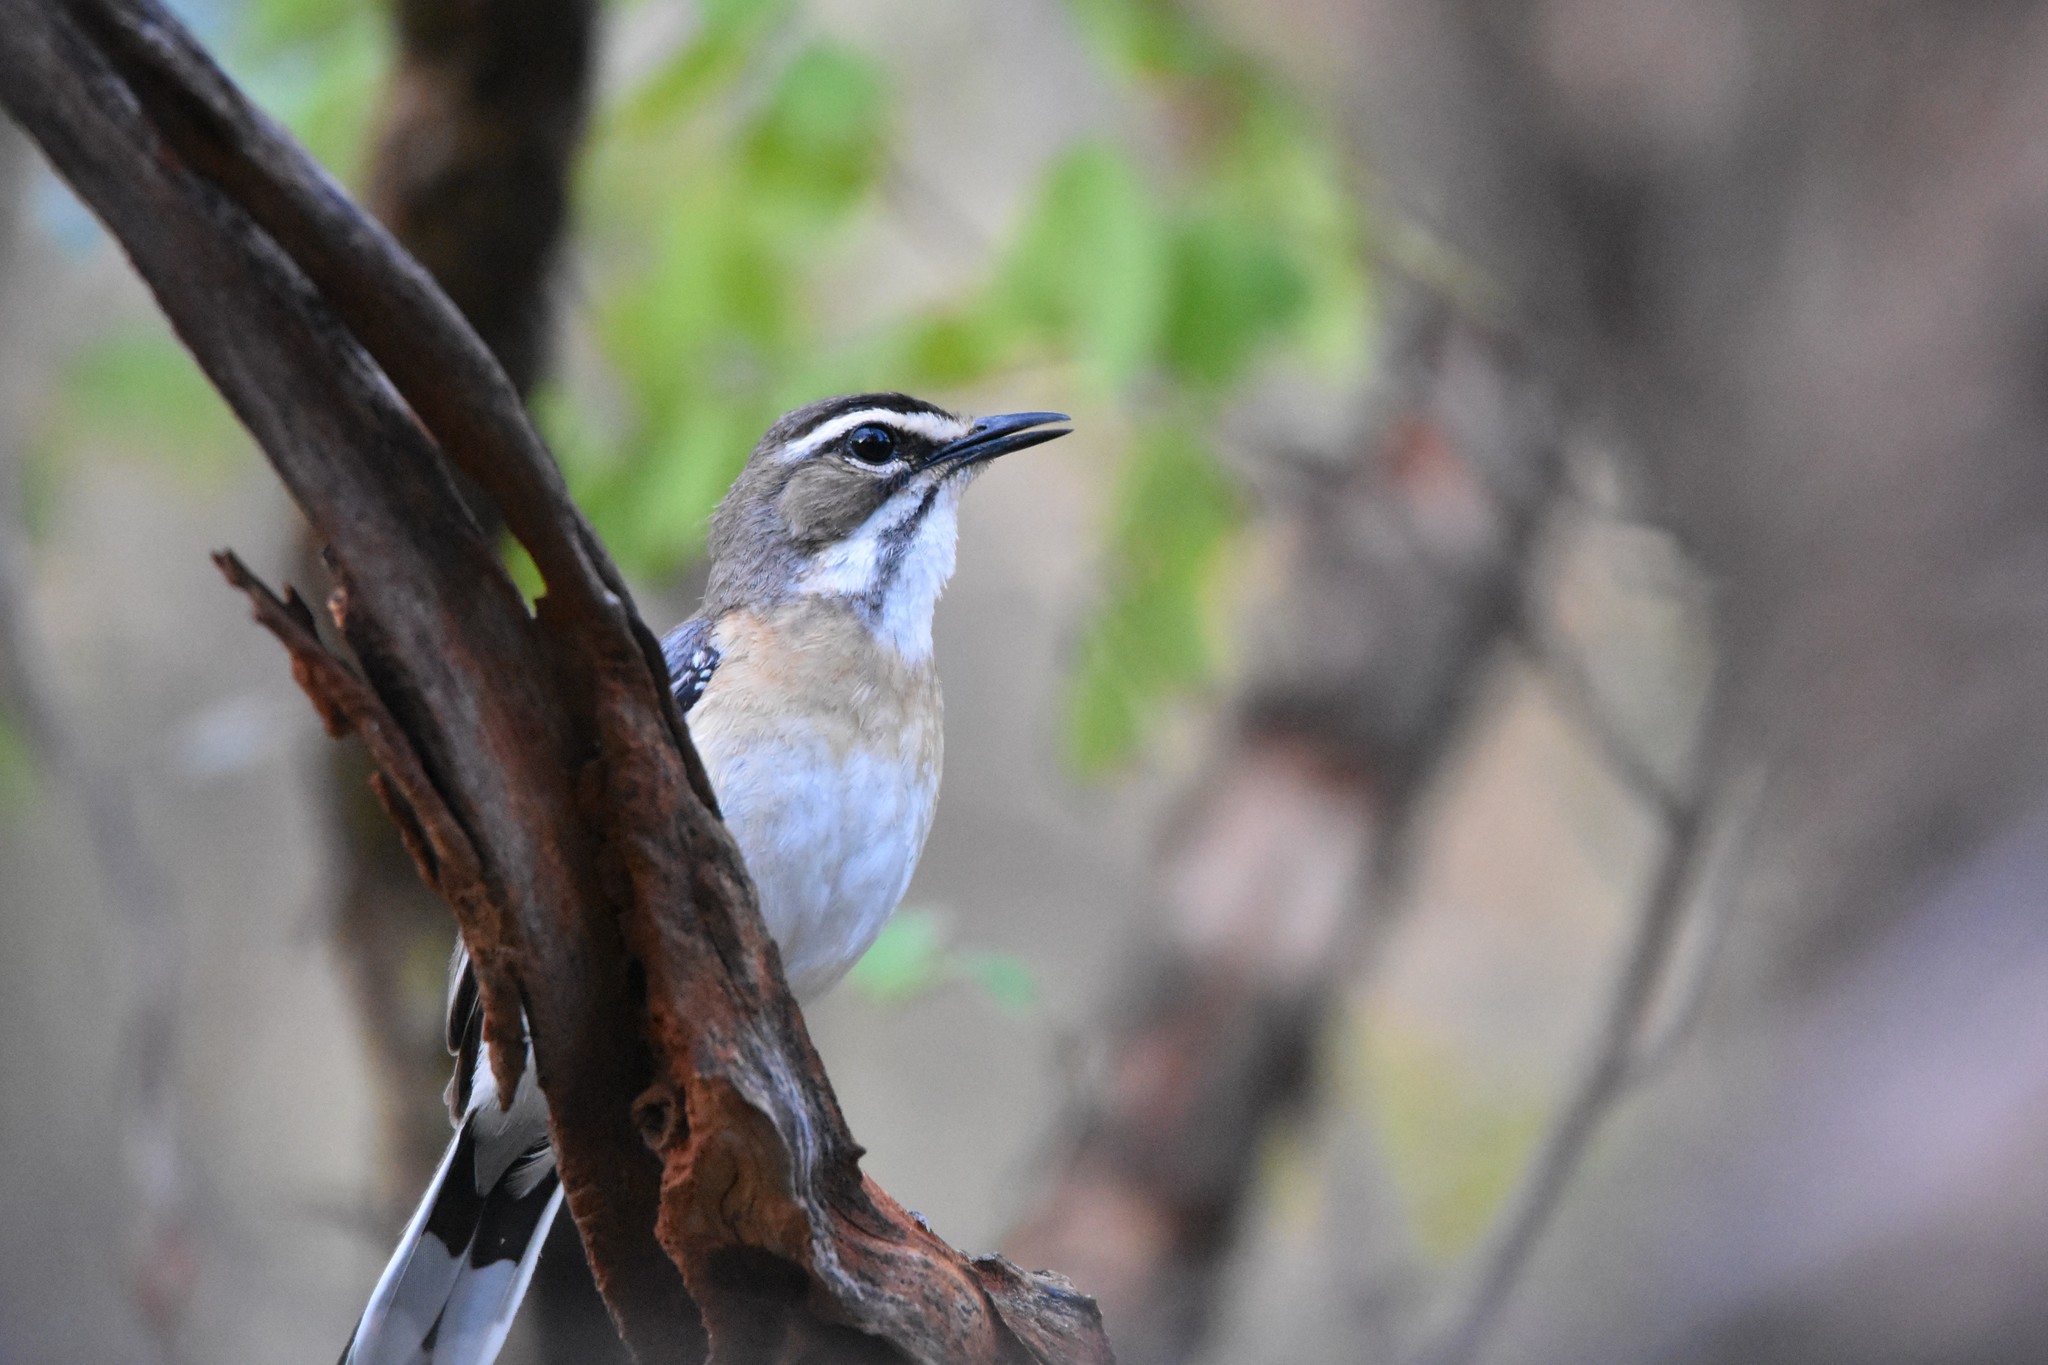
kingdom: Animalia
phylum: Chordata
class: Aves
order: Passeriformes
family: Muscicapidae
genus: Erythropygia
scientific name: Erythropygia quadrivirgata
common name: Bearded scrub robin
